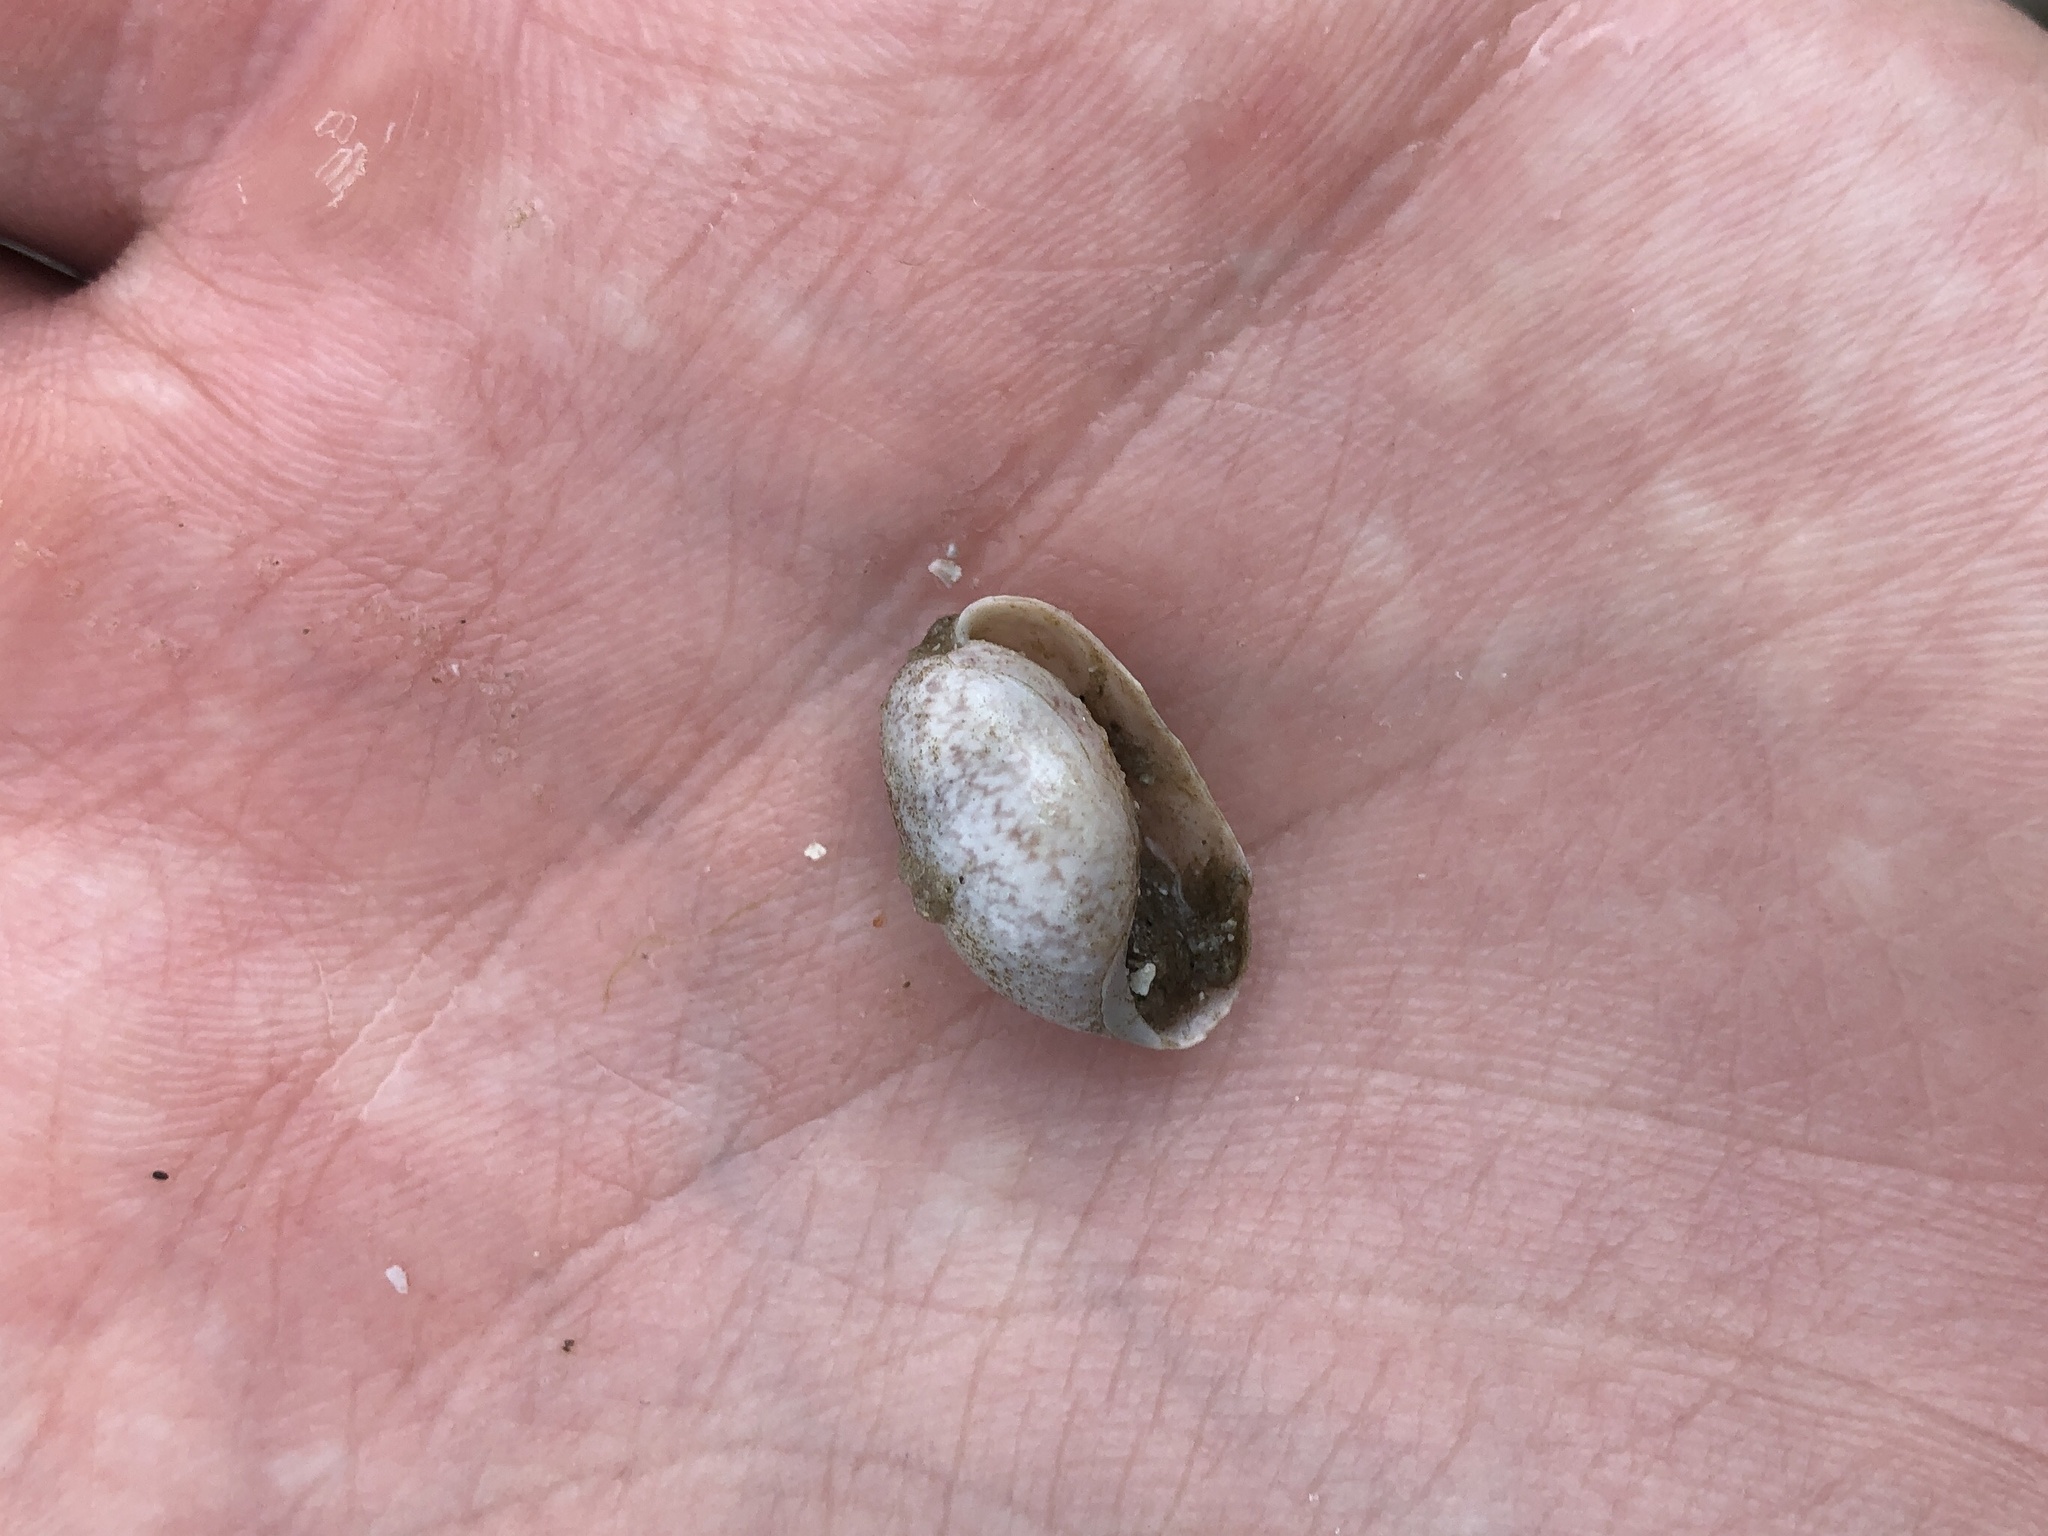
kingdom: Animalia
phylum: Mollusca
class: Gastropoda
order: Cephalaspidea
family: Bullidae
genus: Bulla
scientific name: Bulla occidentalis
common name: Common west-indian bubble
